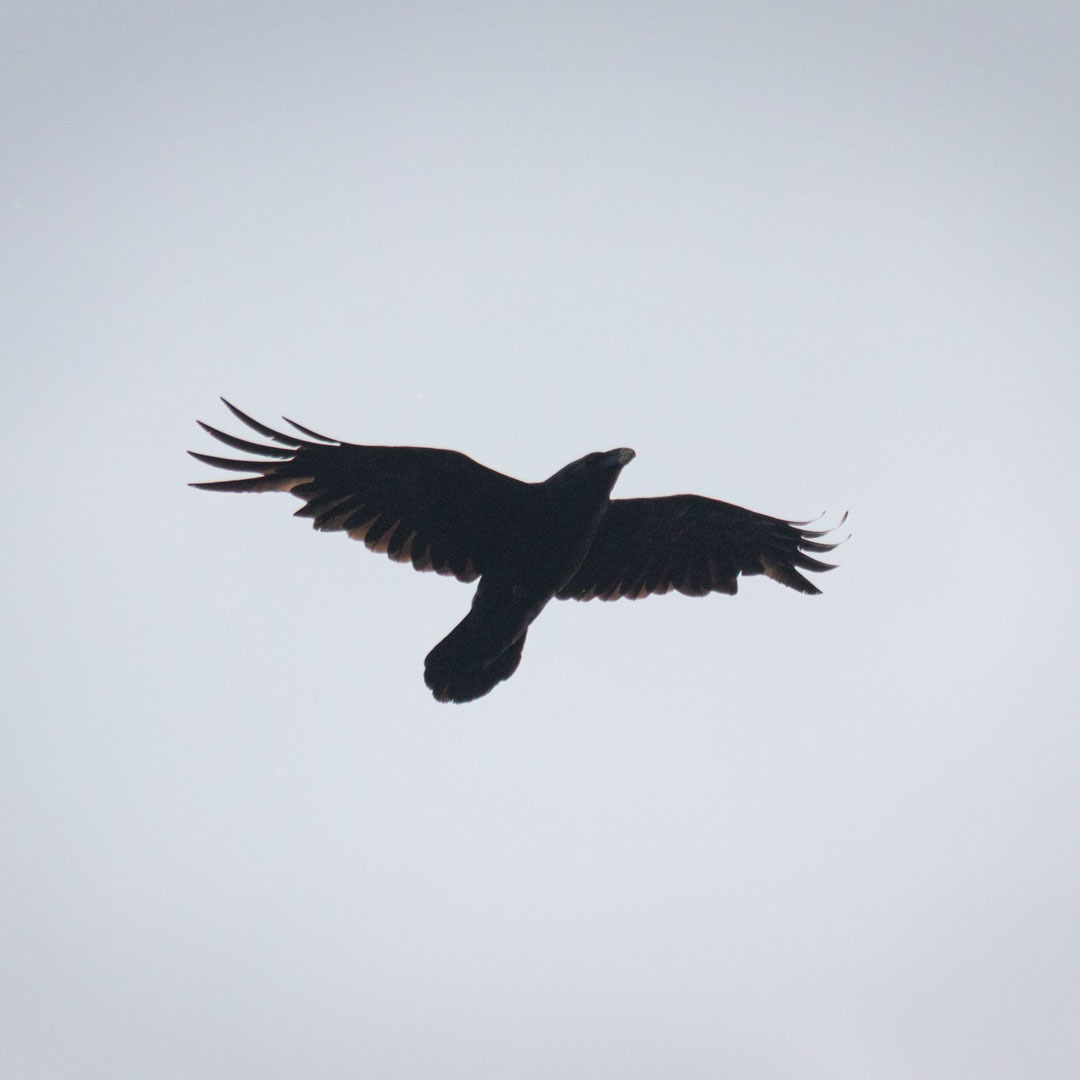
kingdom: Animalia
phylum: Chordata
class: Aves
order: Passeriformes
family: Corvidae
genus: Corvus
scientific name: Corvus corax
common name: Common raven
